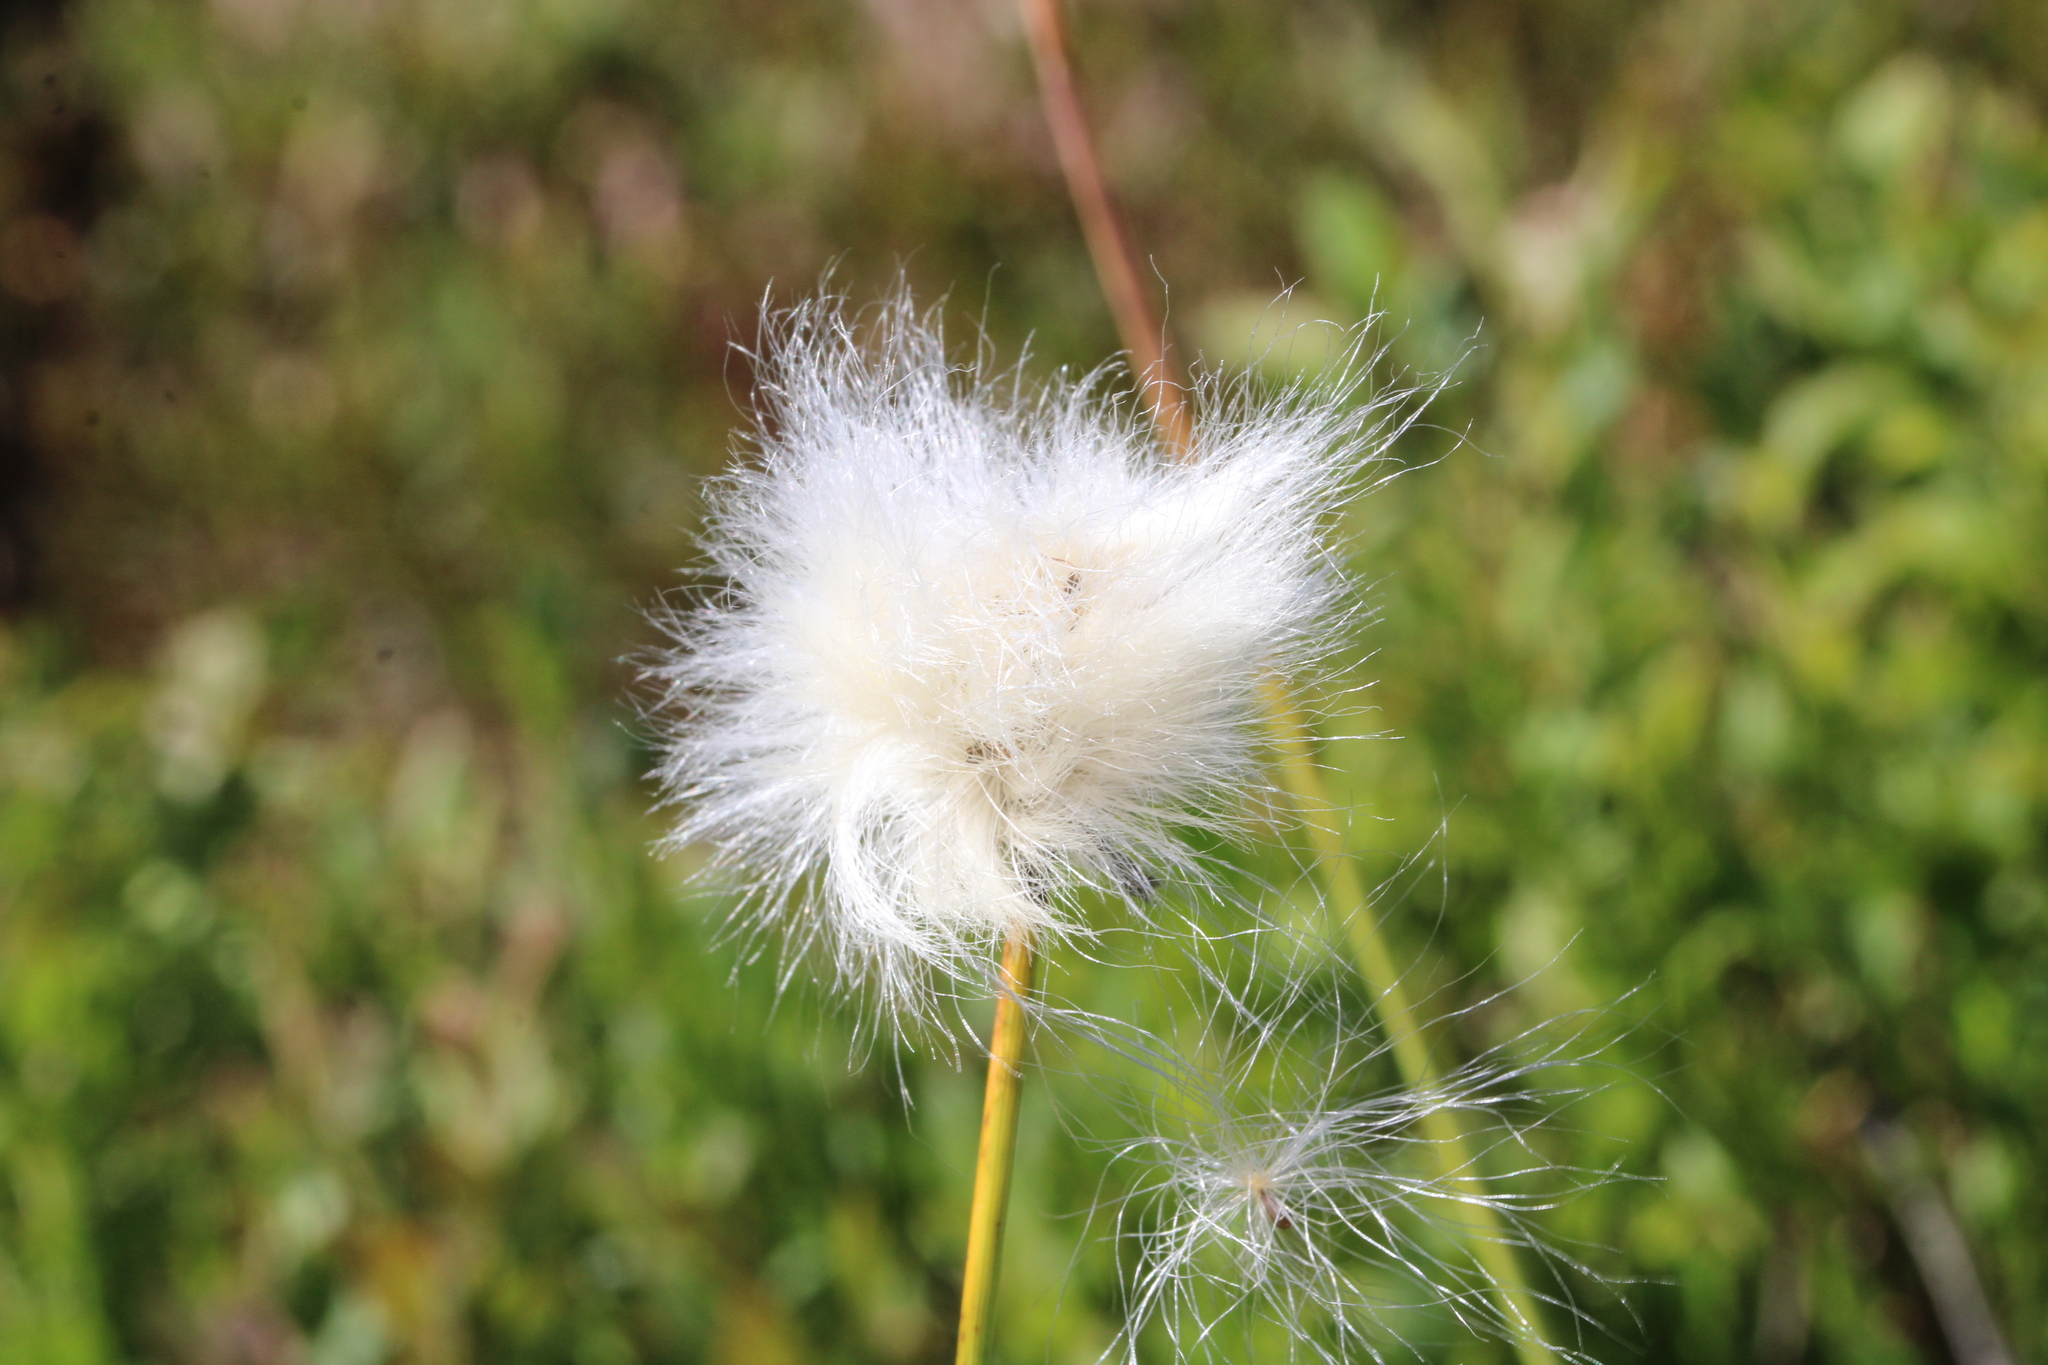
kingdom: Plantae
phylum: Tracheophyta
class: Liliopsida
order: Poales
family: Cyperaceae
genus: Eriophorum
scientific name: Eriophorum vaginatum
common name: Hare's-tail cottongrass
